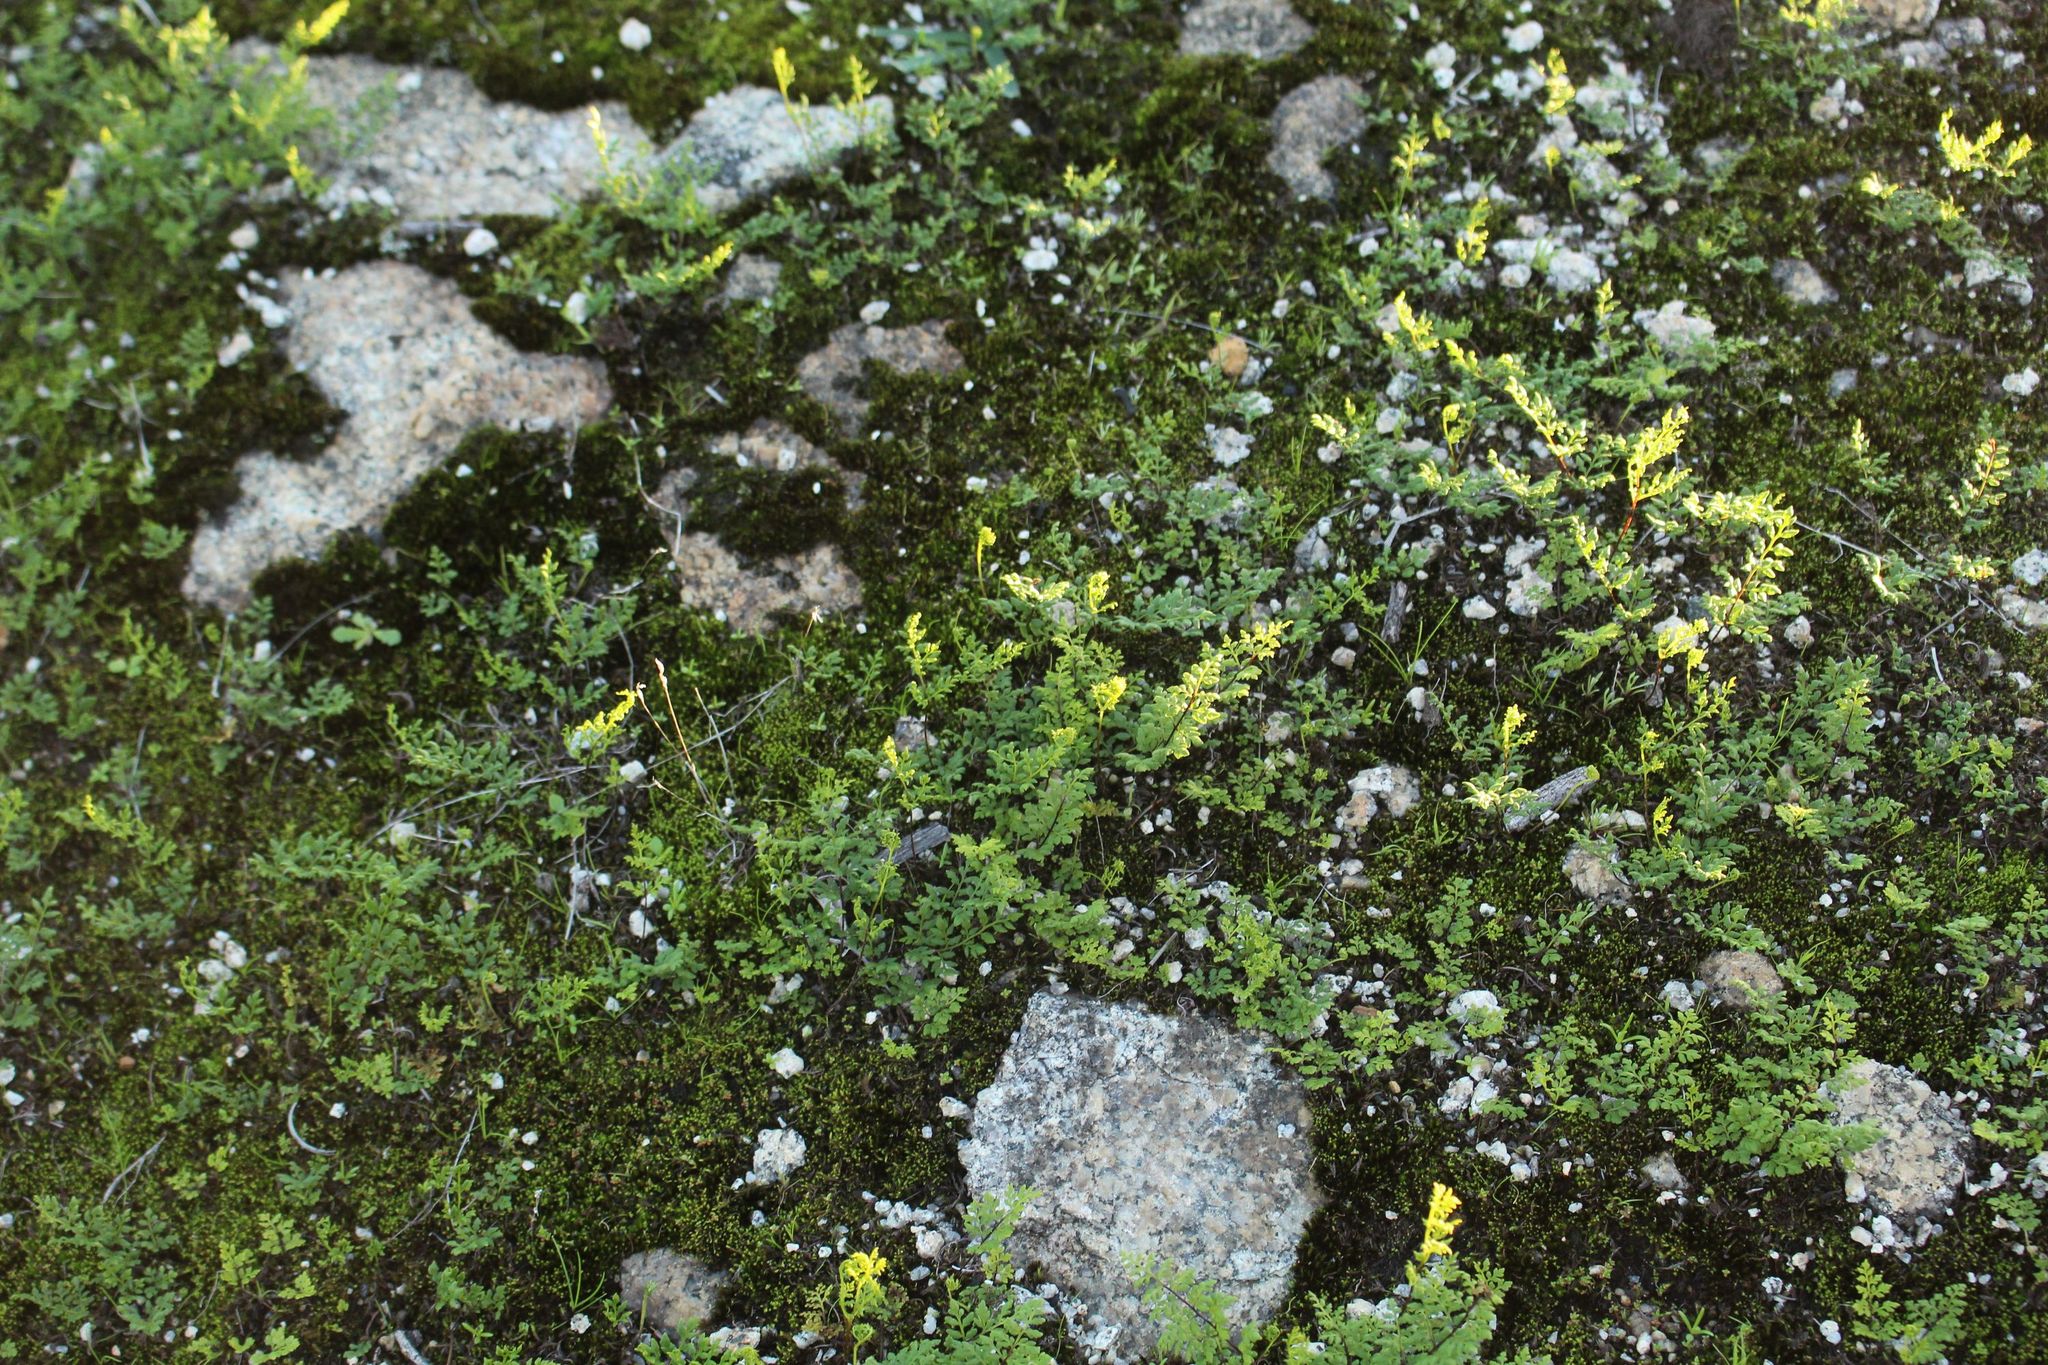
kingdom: Plantae
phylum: Tracheophyta
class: Polypodiopsida
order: Polypodiales
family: Pteridaceae
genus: Cheilanthes
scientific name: Cheilanthes austrotenuifolia
